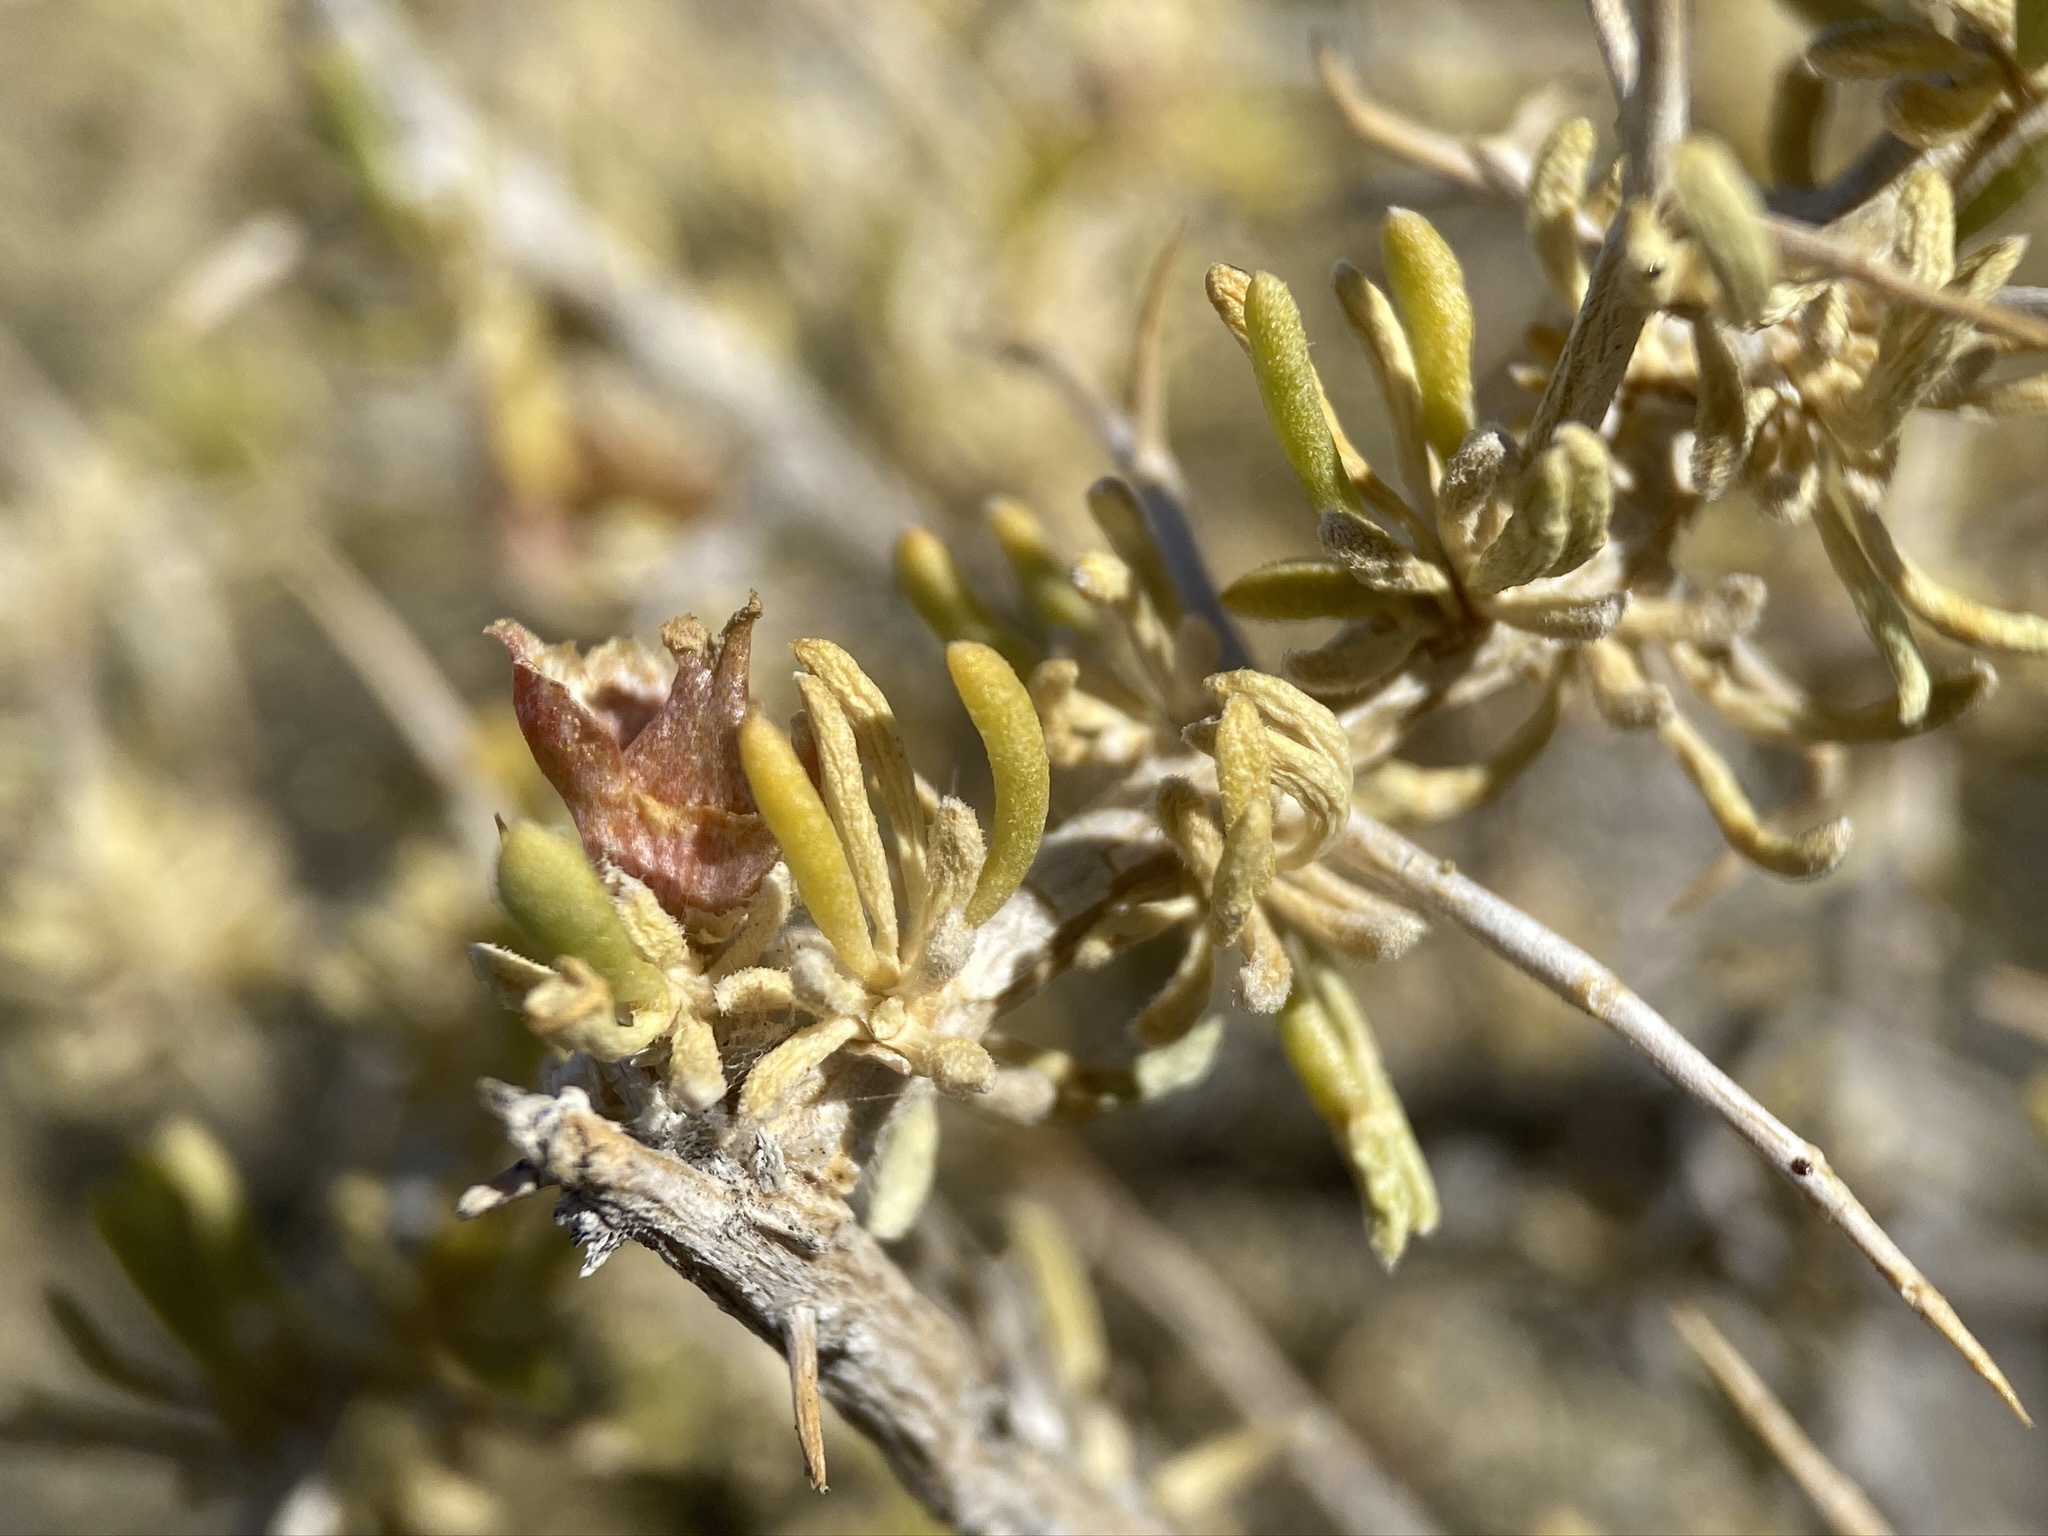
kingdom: Plantae
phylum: Tracheophyta
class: Magnoliopsida
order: Caryophyllales
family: Sarcobataceae
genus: Sarcobatus
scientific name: Sarcobatus baileyi
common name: Bailey greasewood
